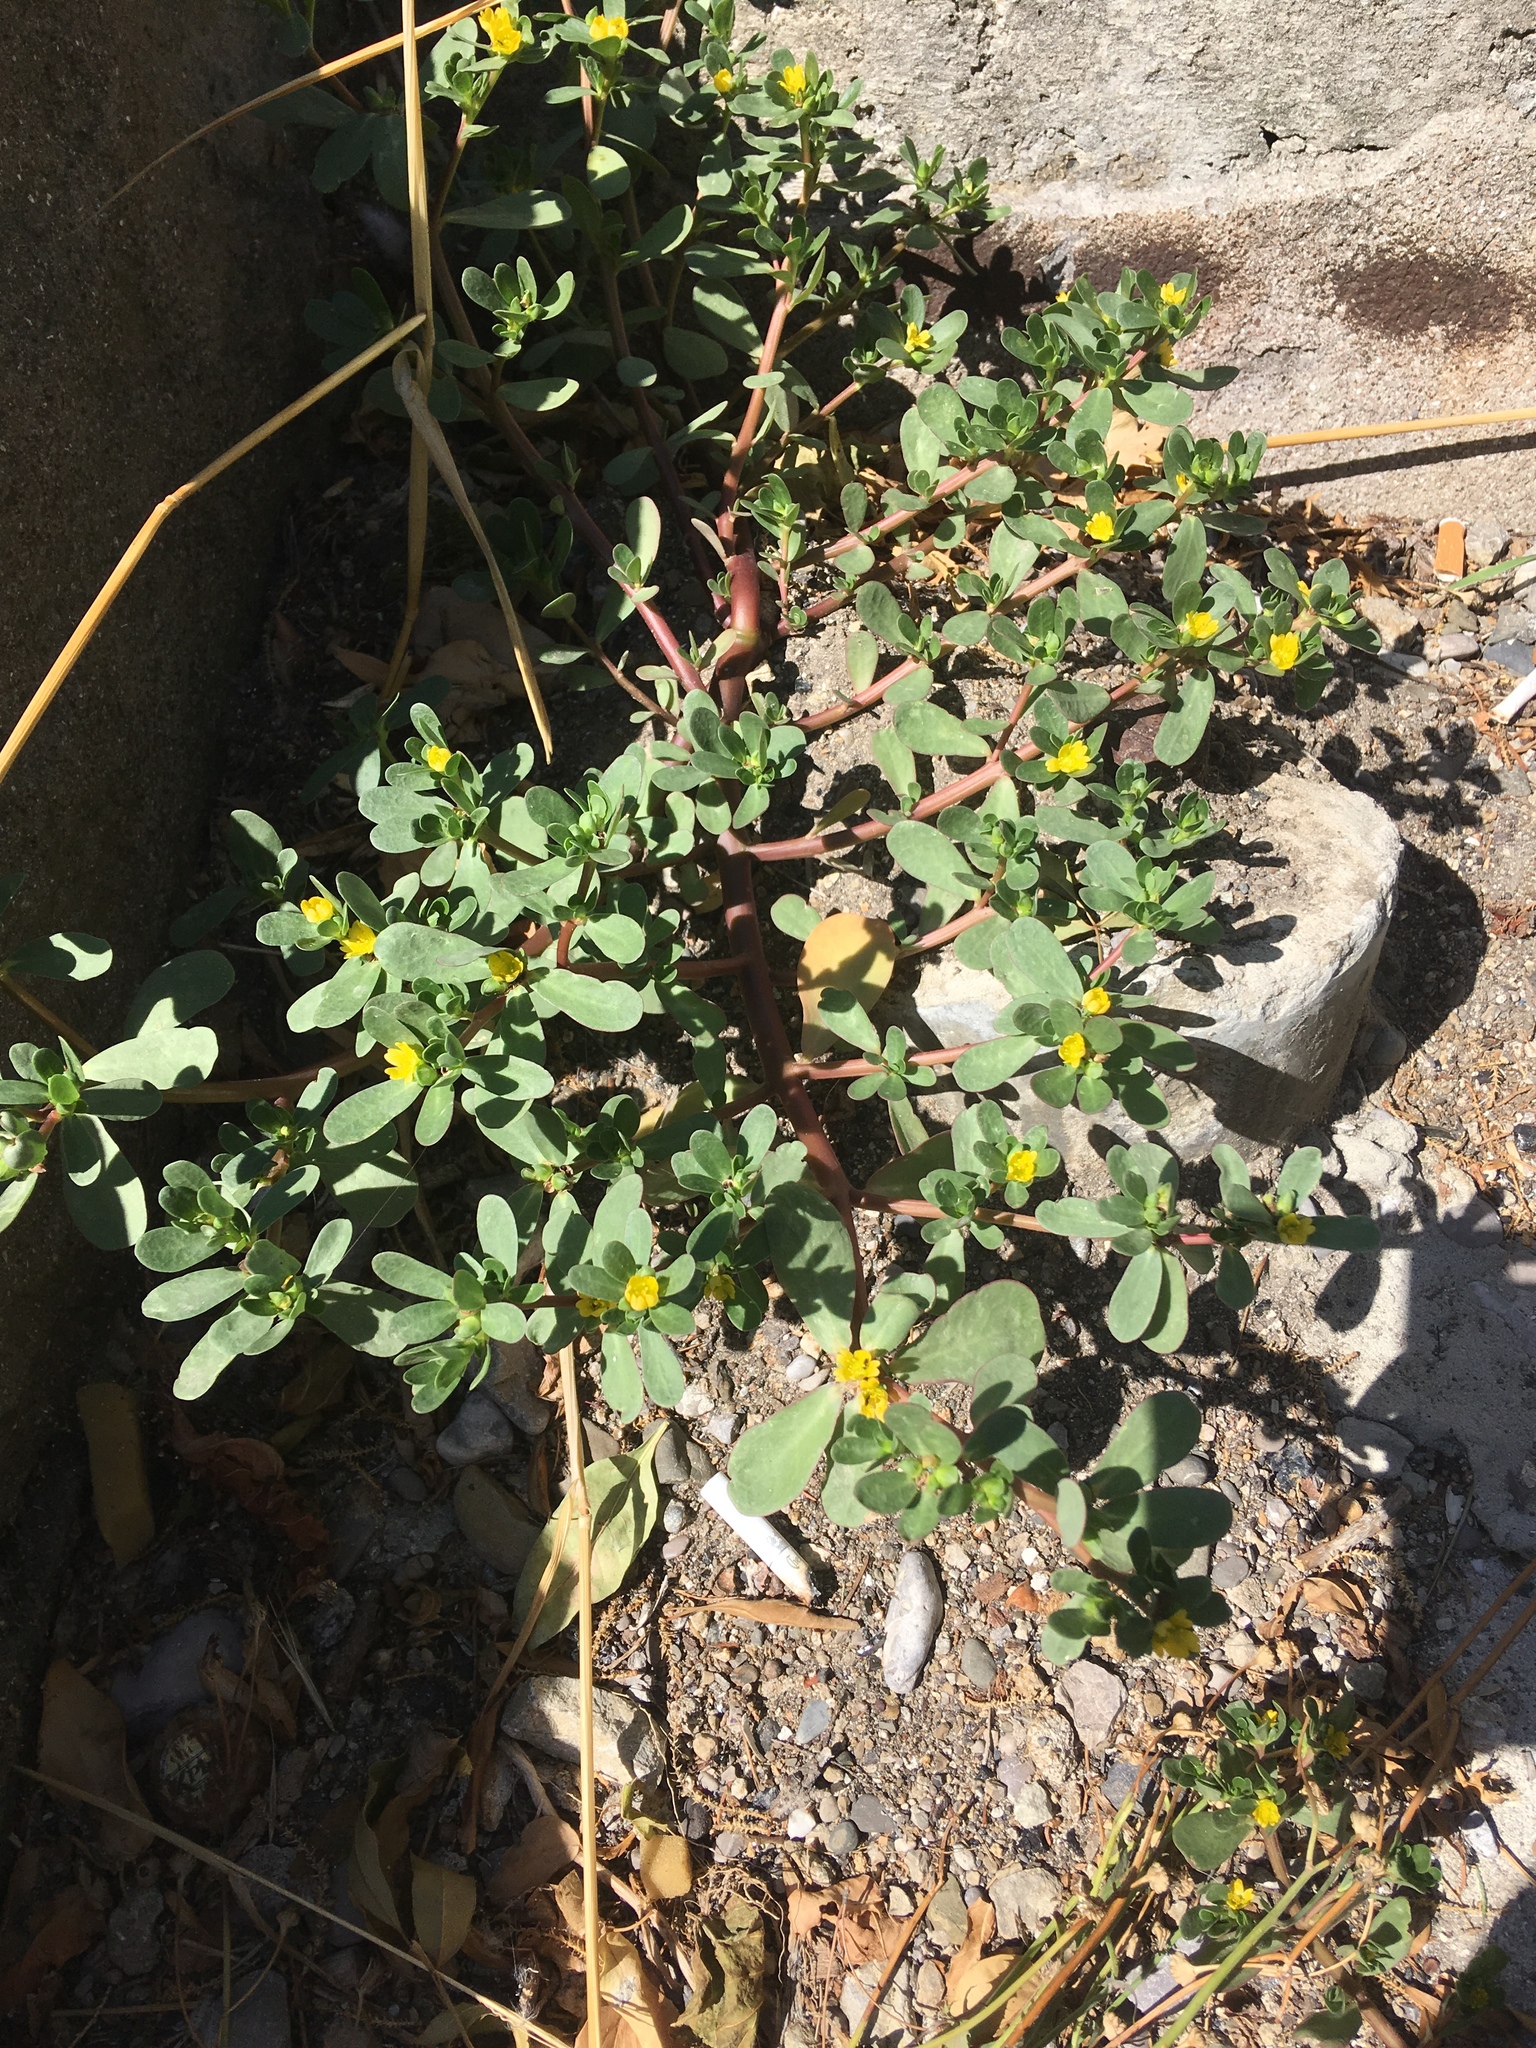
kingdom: Plantae
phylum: Tracheophyta
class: Magnoliopsida
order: Caryophyllales
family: Portulacaceae
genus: Portulaca
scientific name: Portulaca oleracea
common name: Common purslane
